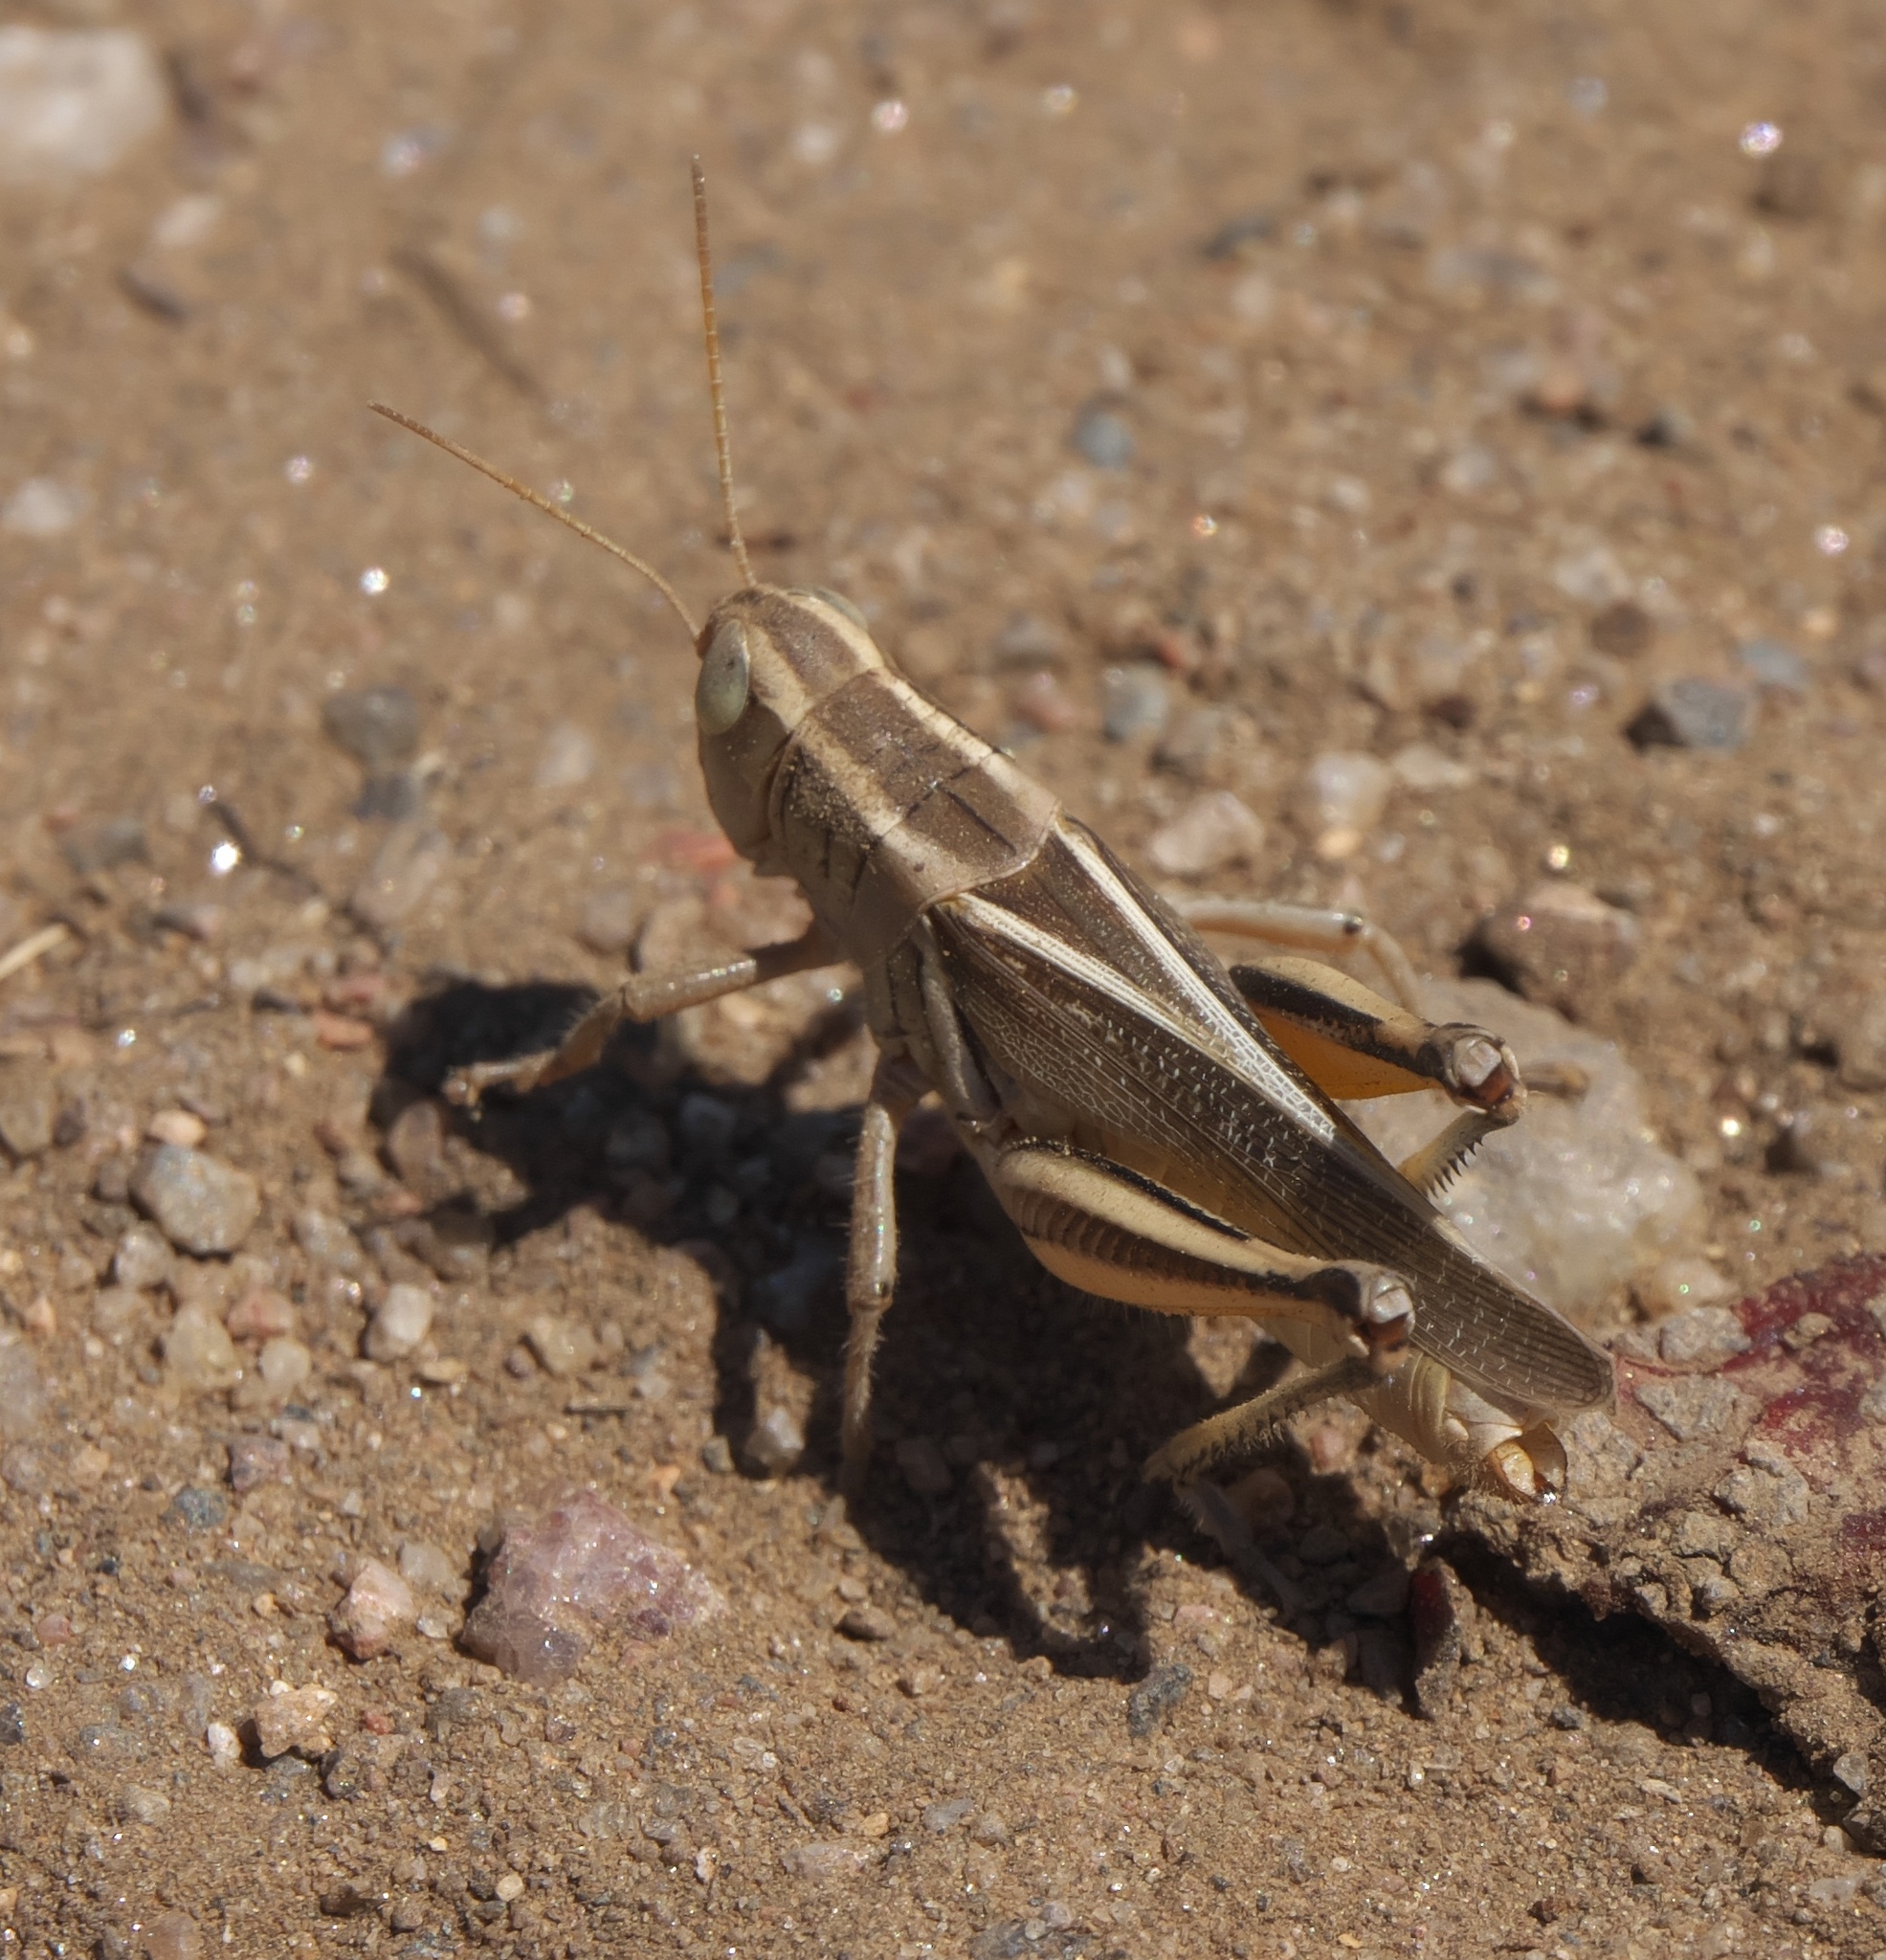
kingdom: Animalia
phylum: Arthropoda
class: Insecta
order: Orthoptera
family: Acrididae
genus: Melanoplus
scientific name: Melanoplus bivittatus
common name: Two-striped grasshopper
